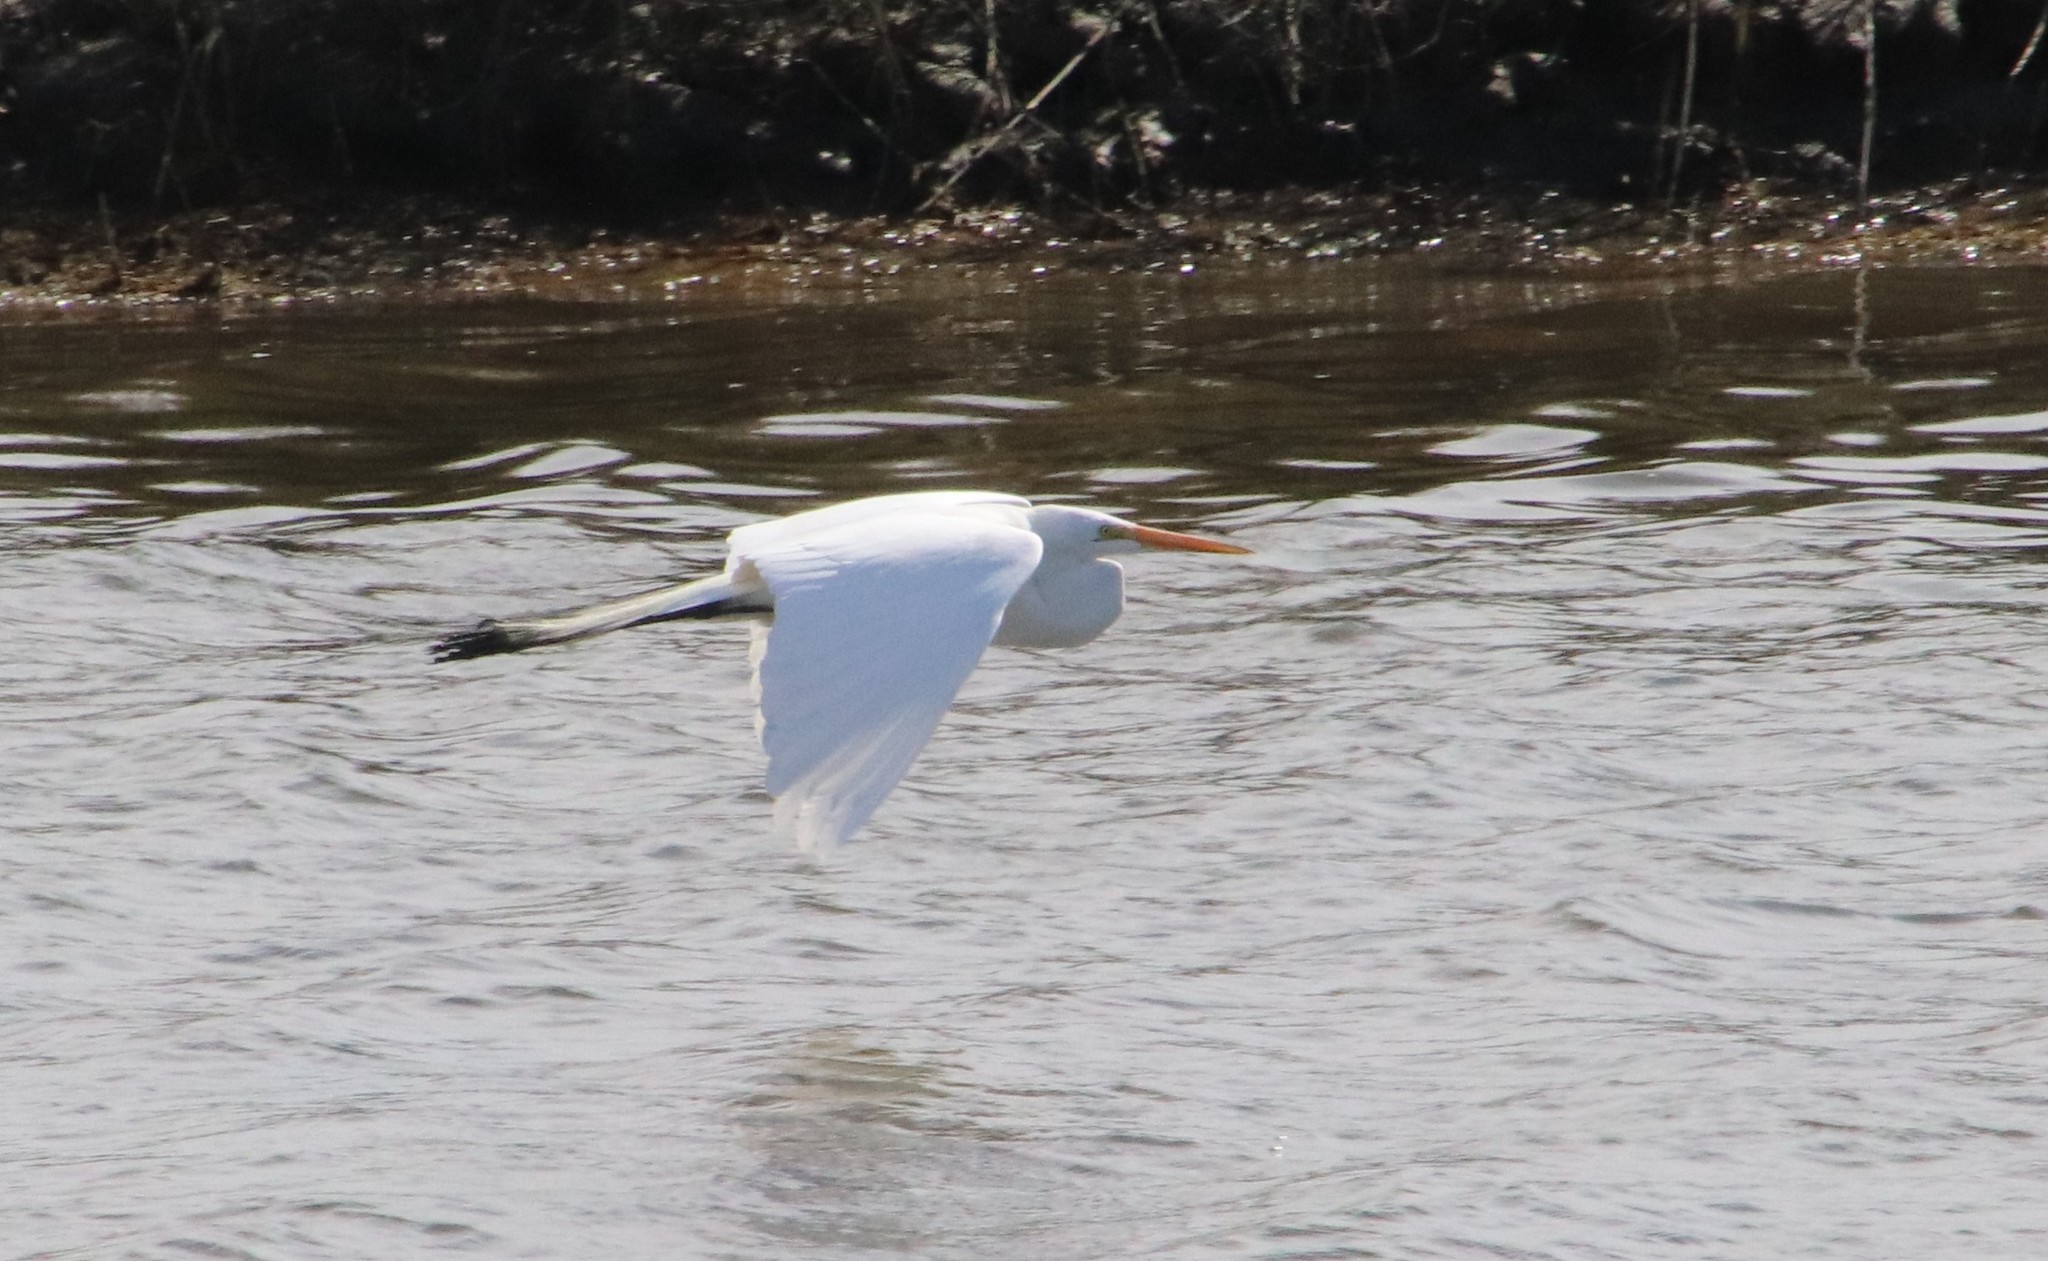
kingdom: Animalia
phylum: Chordata
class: Aves
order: Pelecaniformes
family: Ardeidae
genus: Ardea
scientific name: Ardea alba
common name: Great egret
